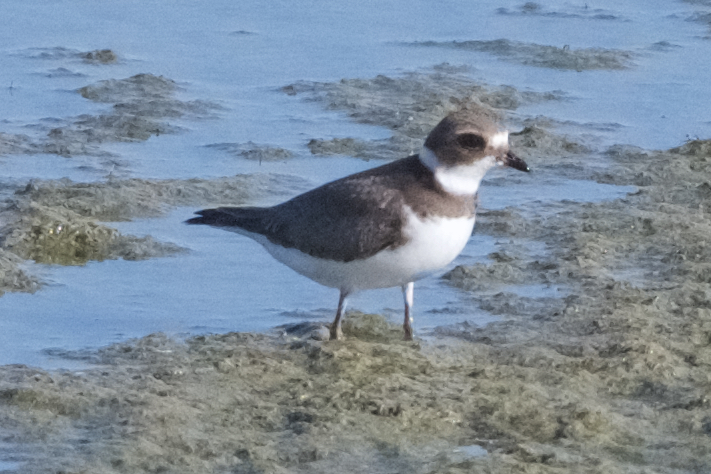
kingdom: Animalia
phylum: Chordata
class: Aves
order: Charadriiformes
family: Charadriidae
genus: Charadrius
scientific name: Charadrius semipalmatus
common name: Semipalmated plover
